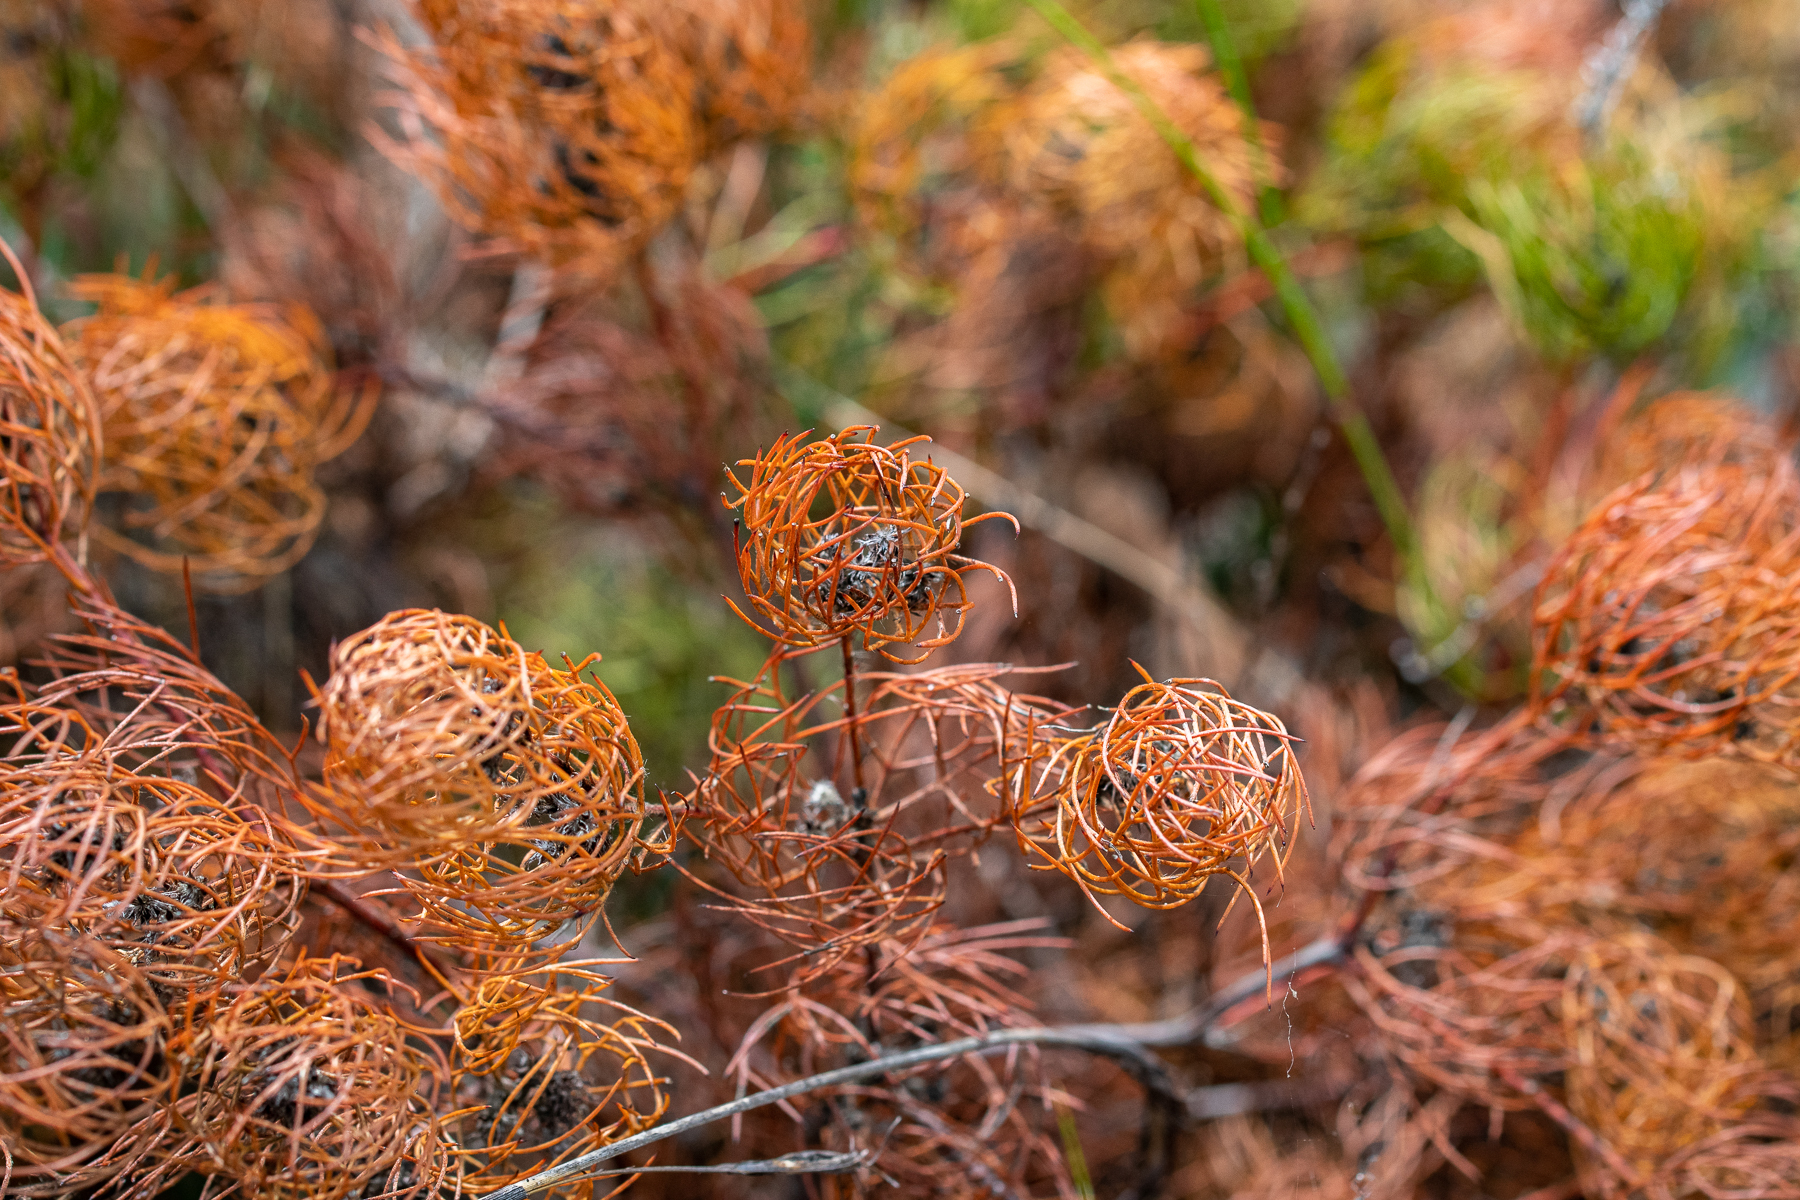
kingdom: Plantae
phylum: Tracheophyta
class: Magnoliopsida
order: Proteales
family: Proteaceae
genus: Serruria
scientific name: Serruria inconspicua
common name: Cryptic spiderhead
